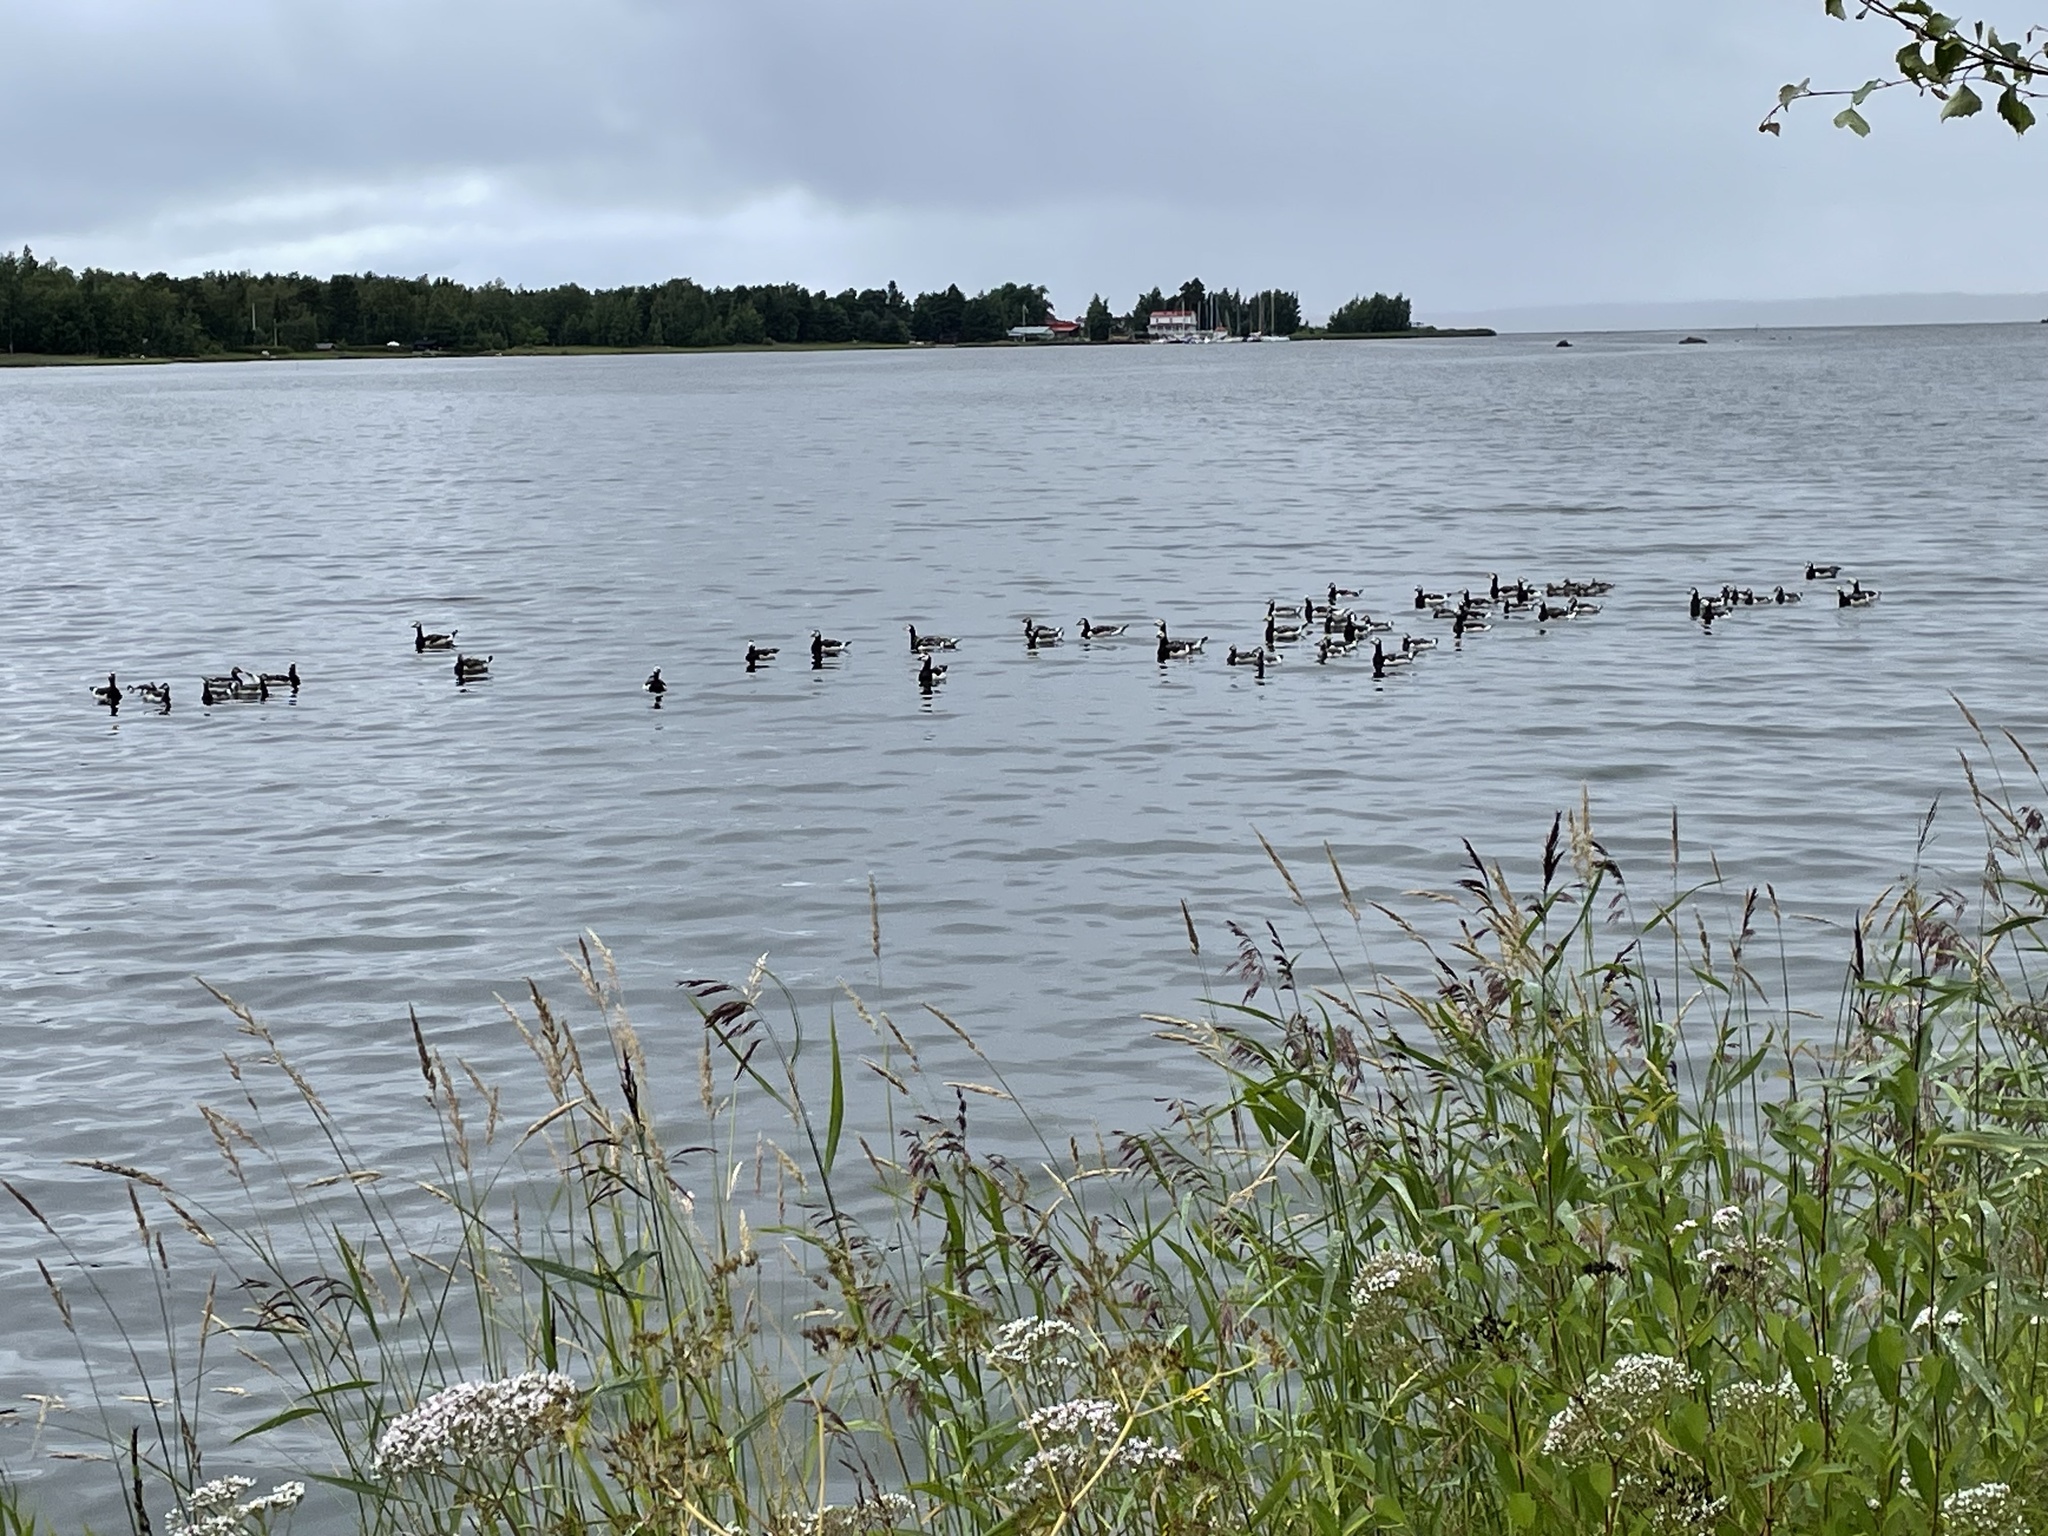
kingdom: Animalia
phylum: Chordata
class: Aves
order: Anseriformes
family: Anatidae
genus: Branta
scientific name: Branta leucopsis
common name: Barnacle goose
